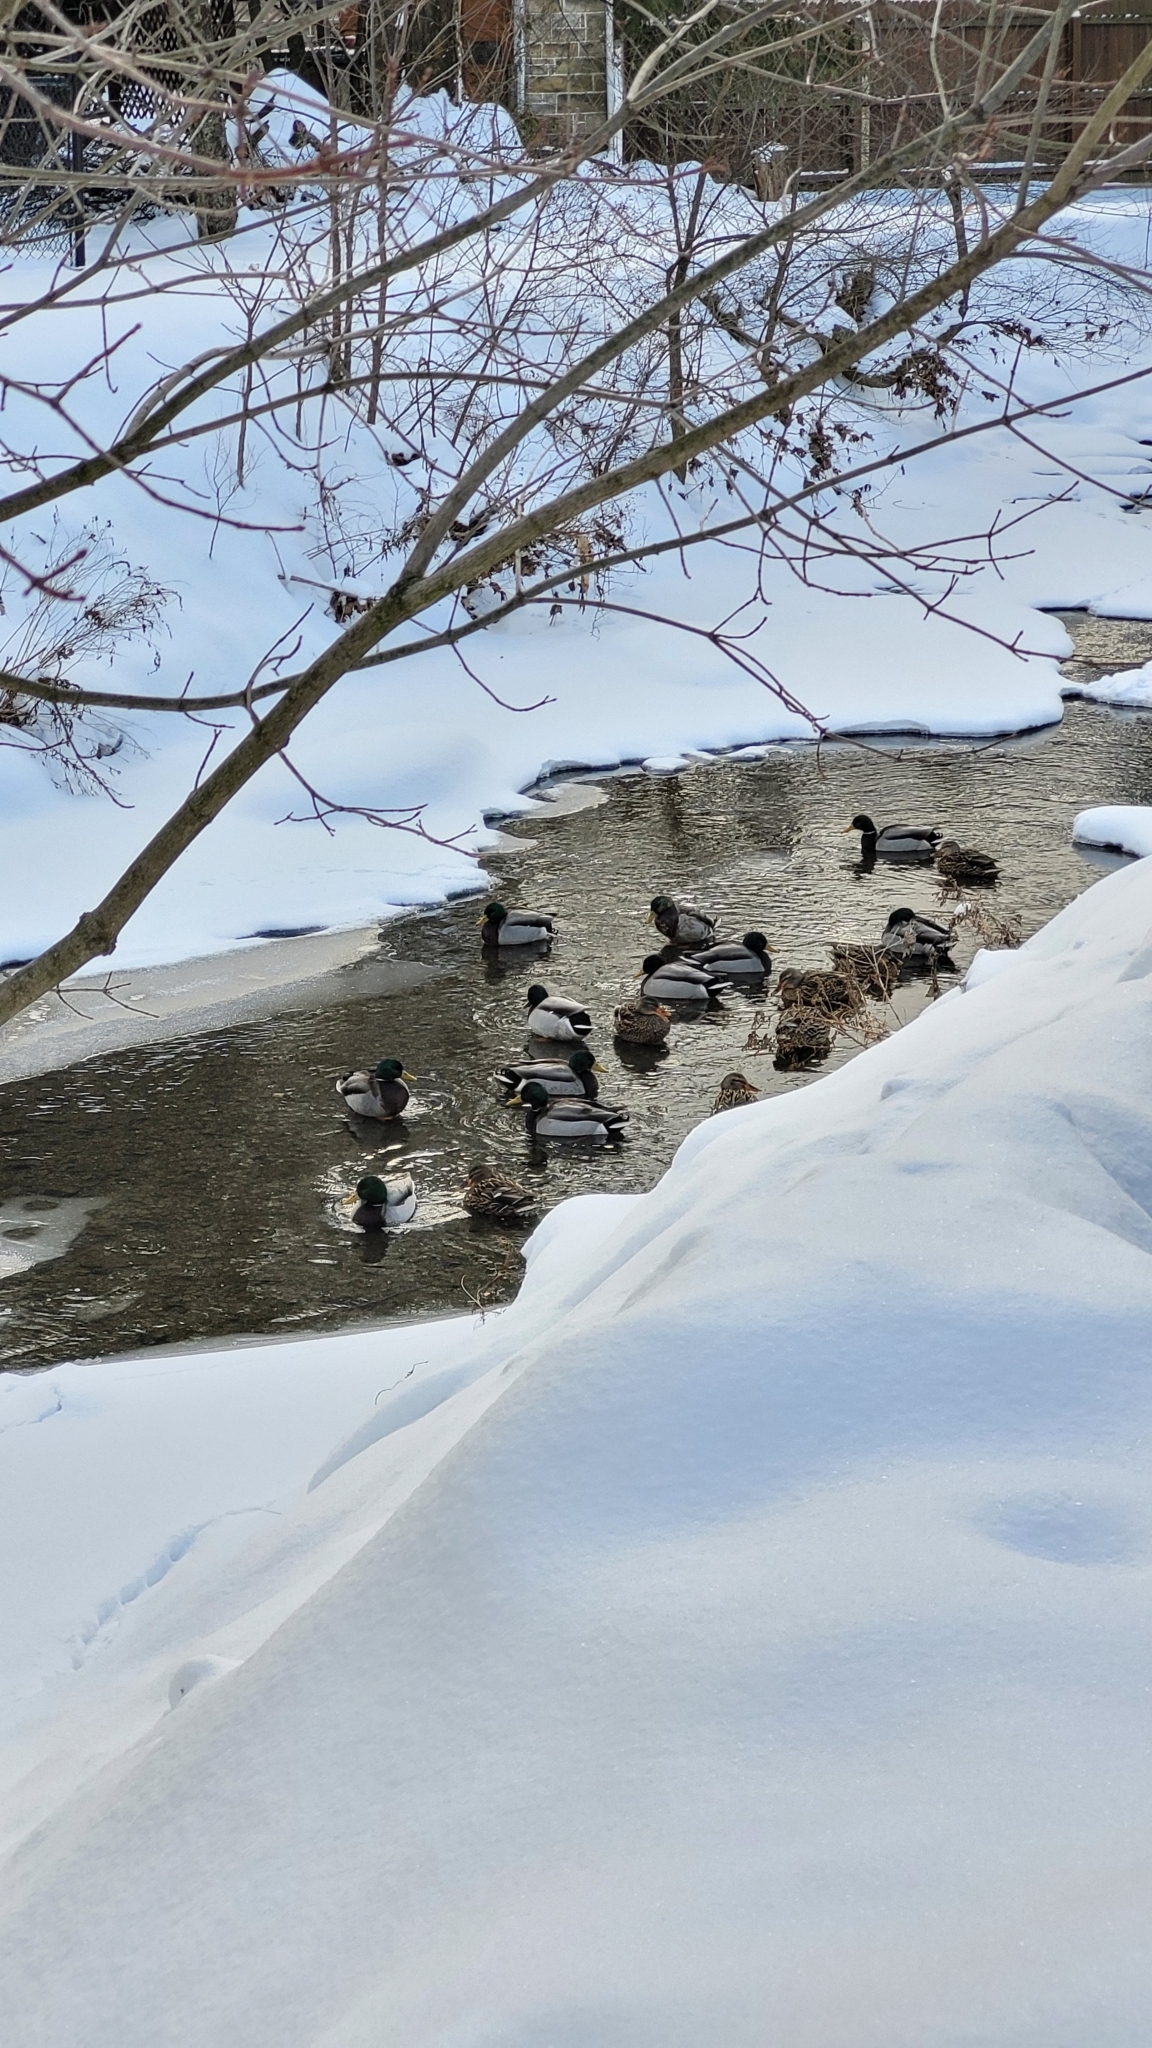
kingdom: Animalia
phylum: Chordata
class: Aves
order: Anseriformes
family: Anatidae
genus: Anas
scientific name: Anas platyrhynchos
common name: Mallard
